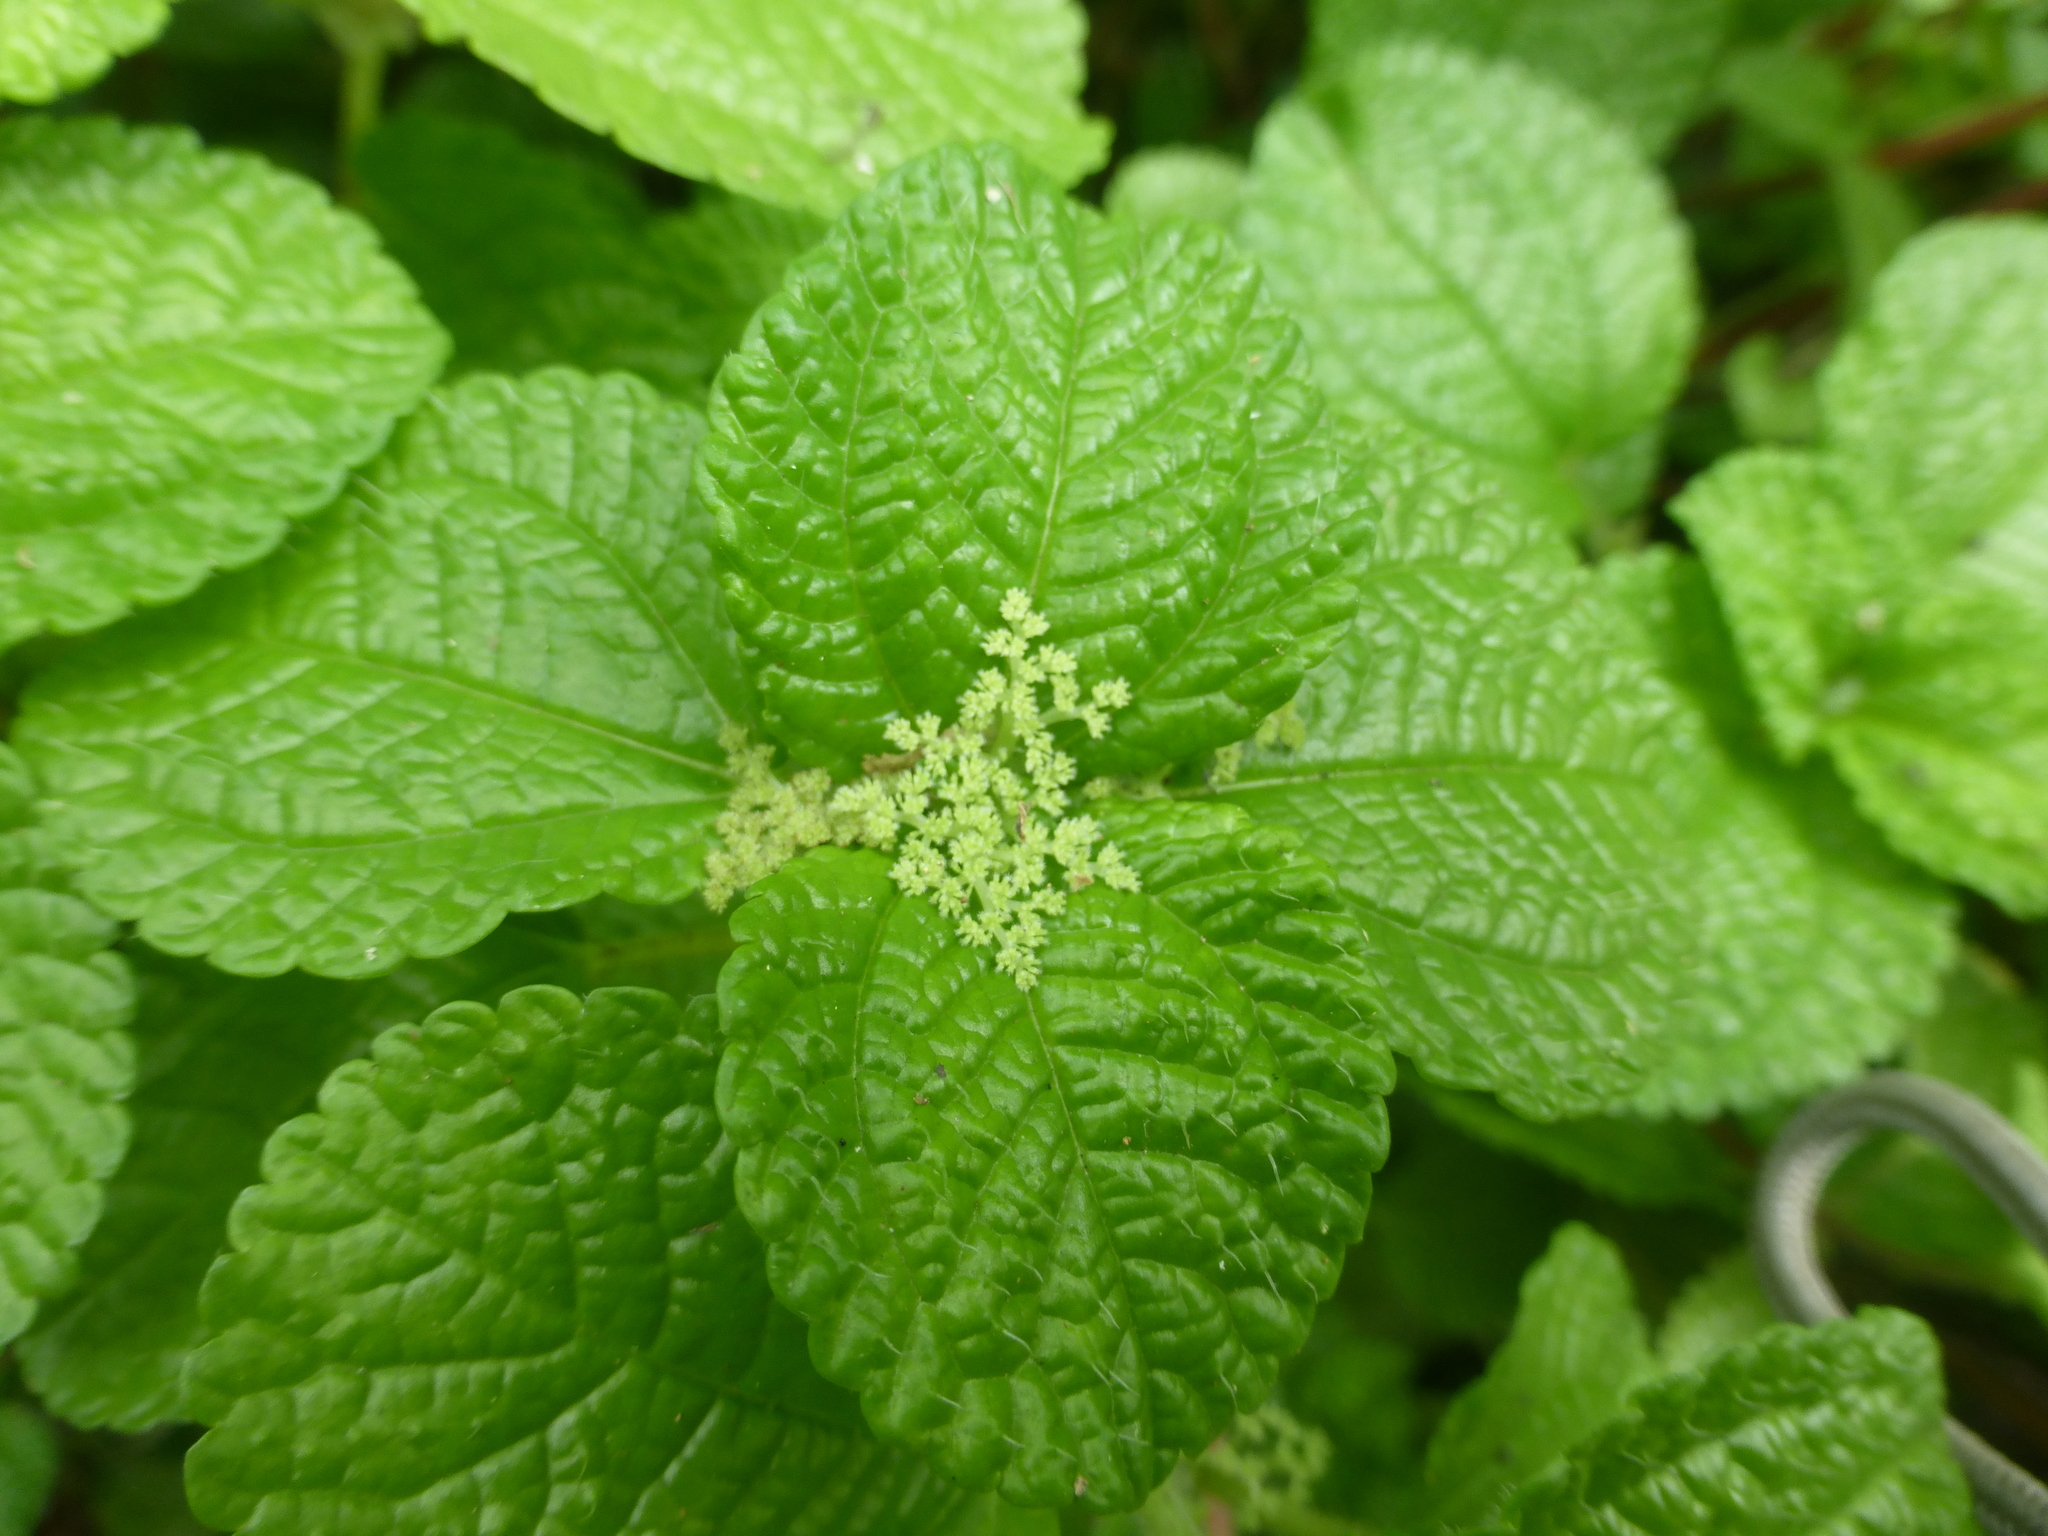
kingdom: Plantae
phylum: Tracheophyta
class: Magnoliopsida
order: Rosales
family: Urticaceae
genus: Pilea
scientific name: Pilea nummulariifolia
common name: Creeping-charlie
